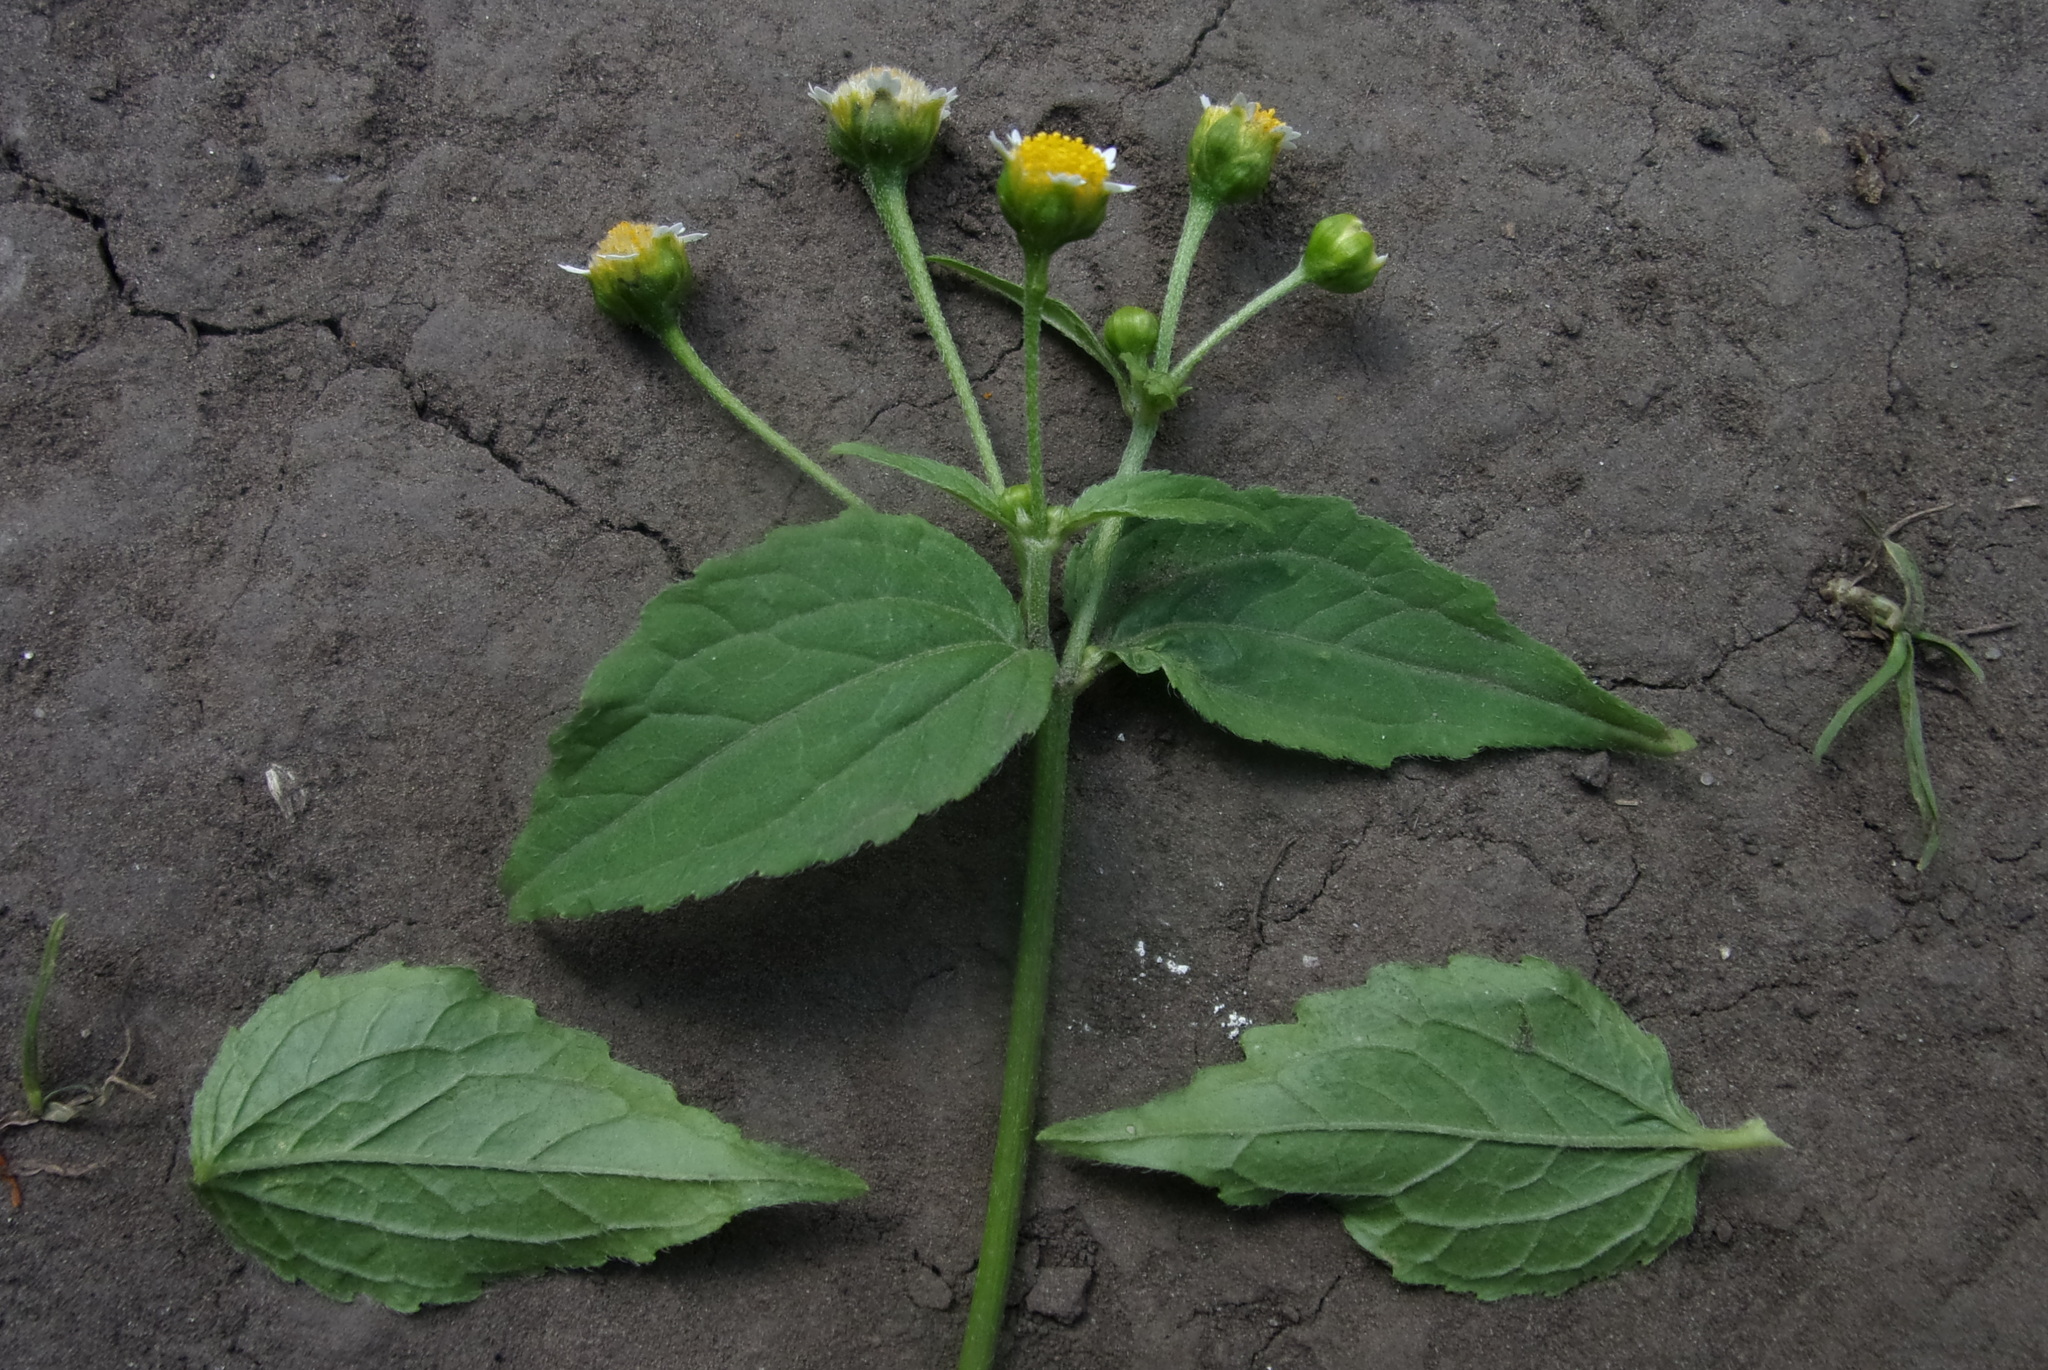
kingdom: Plantae
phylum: Tracheophyta
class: Magnoliopsida
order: Asterales
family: Asteraceae
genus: Galinsoga
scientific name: Galinsoga parviflora
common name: Gallant soldier
